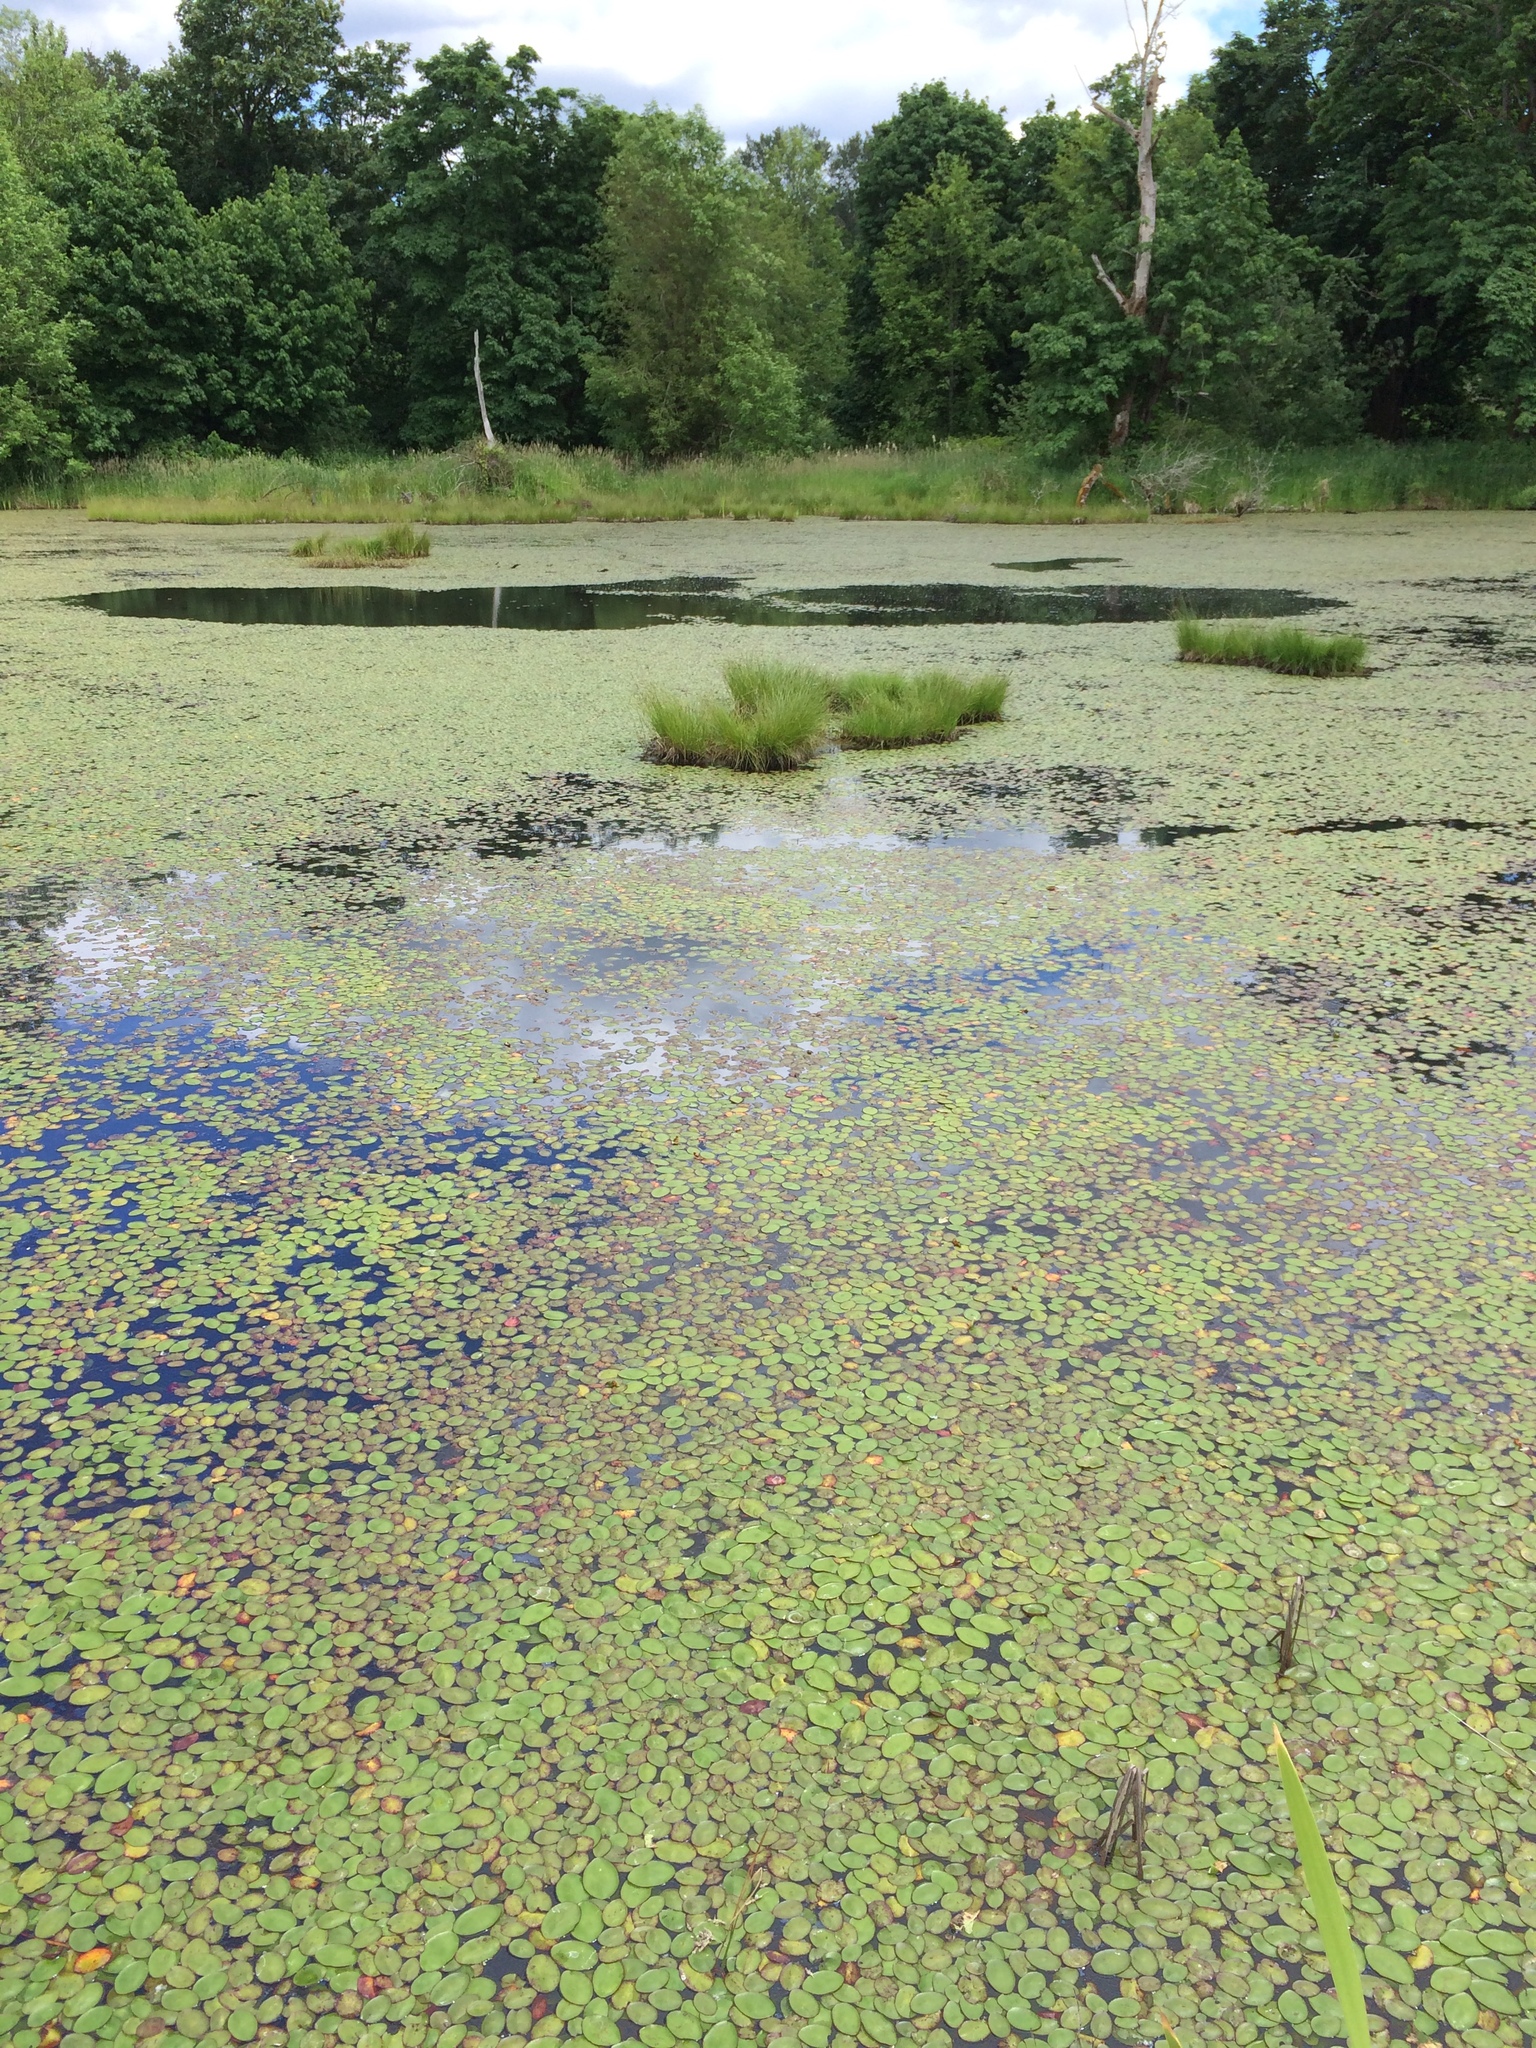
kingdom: Plantae
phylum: Tracheophyta
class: Magnoliopsida
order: Nymphaeales
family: Cabombaceae
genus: Brasenia
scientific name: Brasenia schreberi
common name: Water-shield
